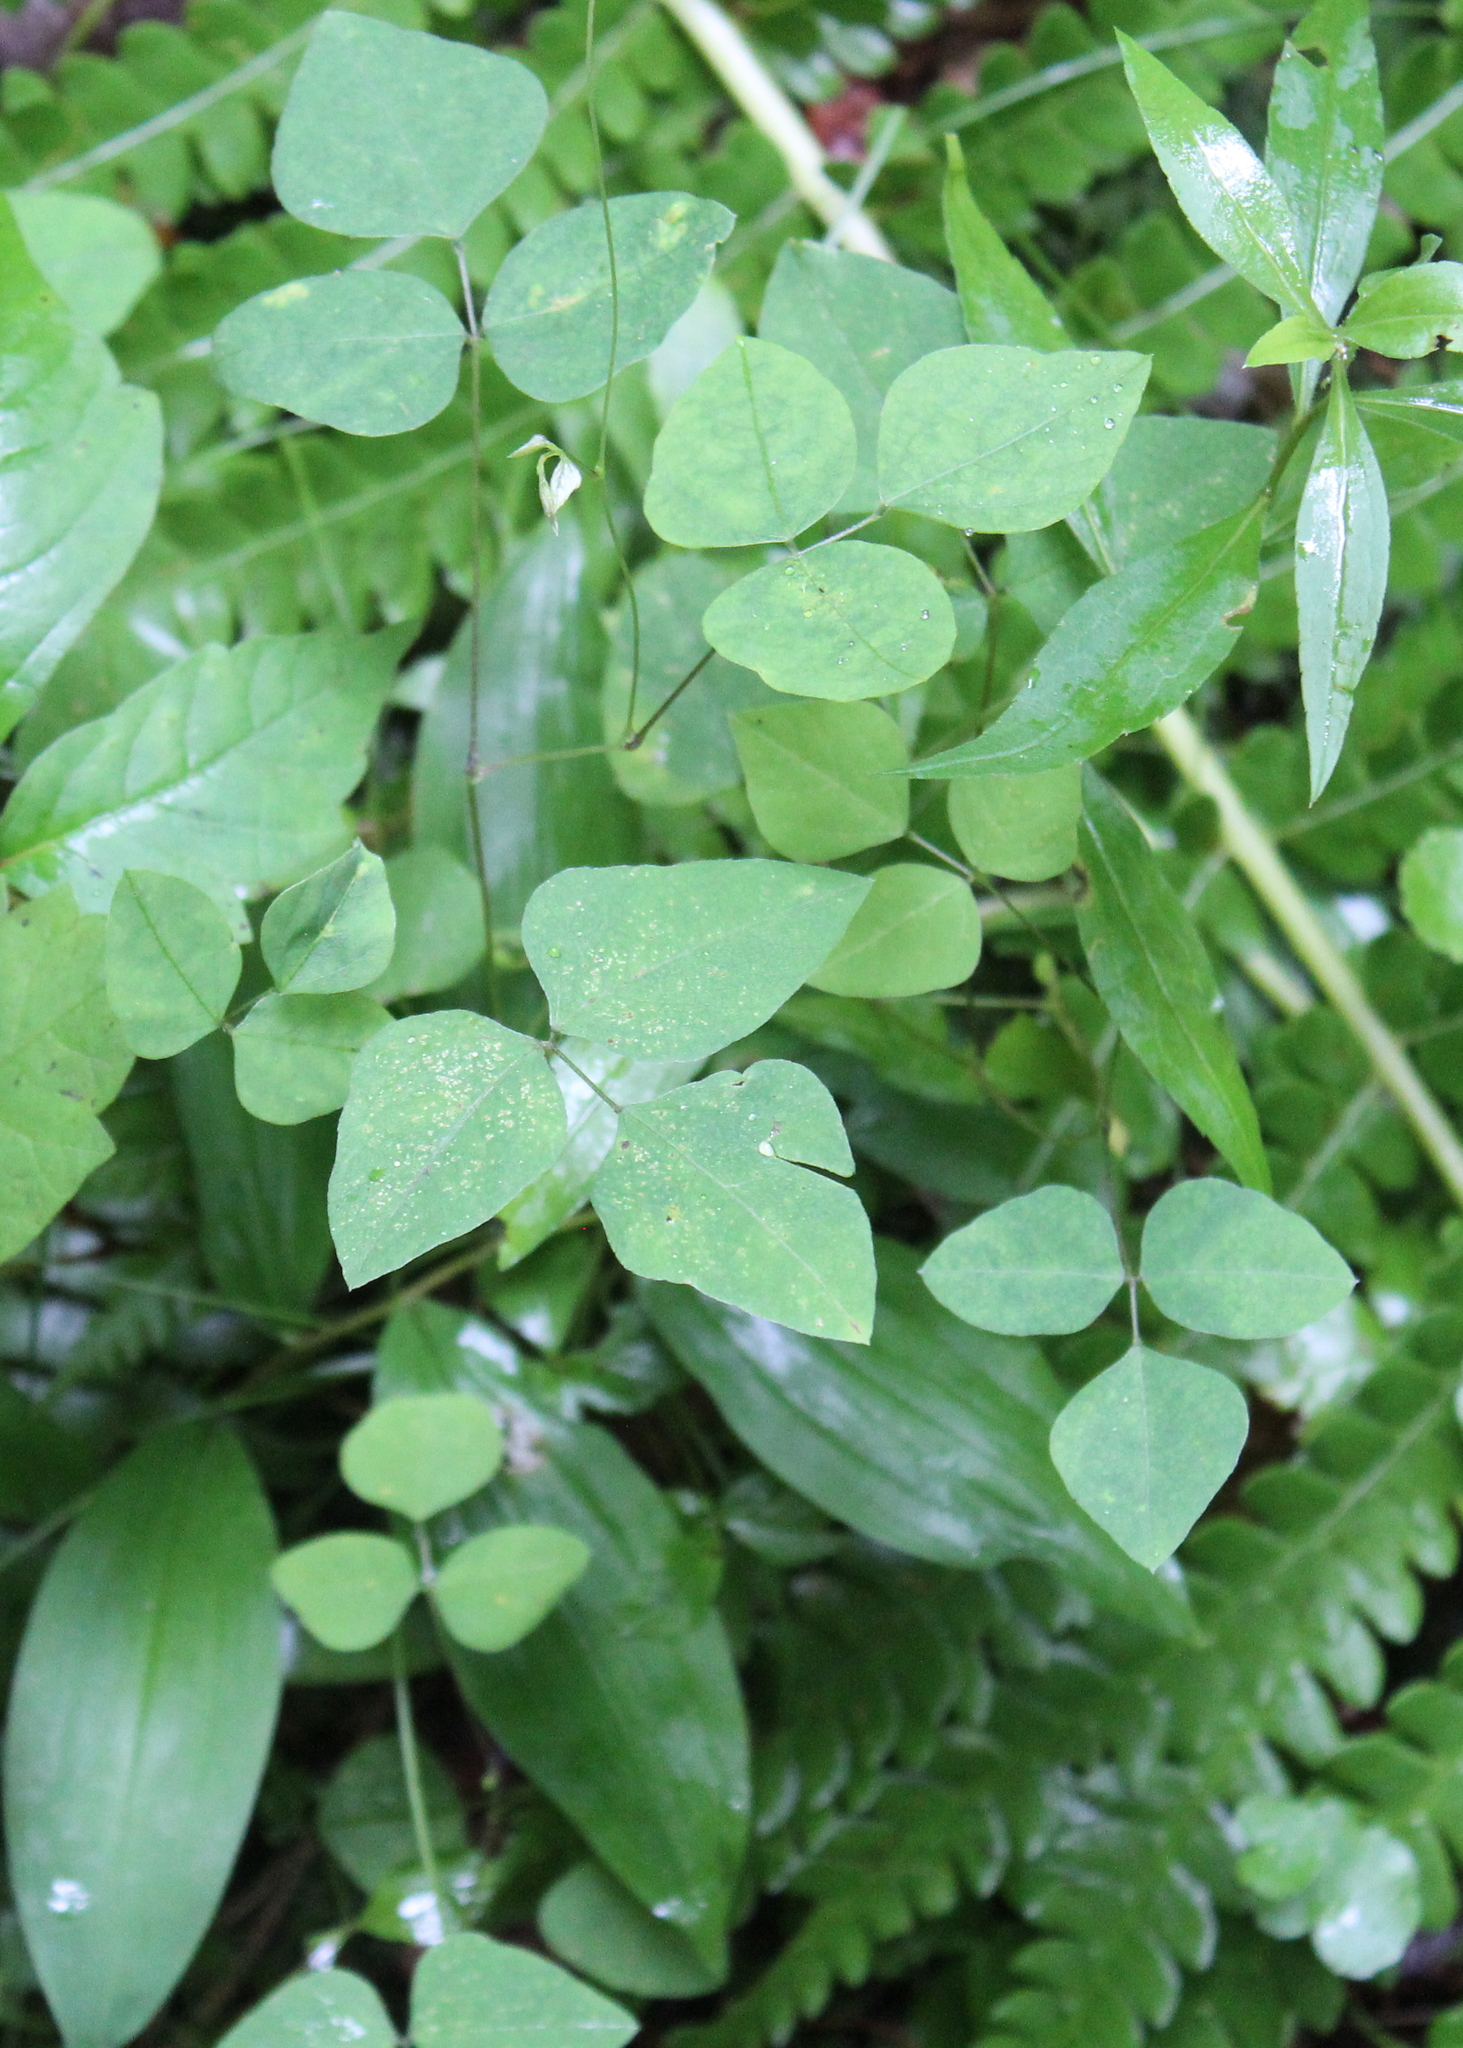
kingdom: Plantae
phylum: Tracheophyta
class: Magnoliopsida
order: Fabales
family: Fabaceae
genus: Amphicarpaea
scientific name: Amphicarpaea bracteata
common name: American hog peanut
